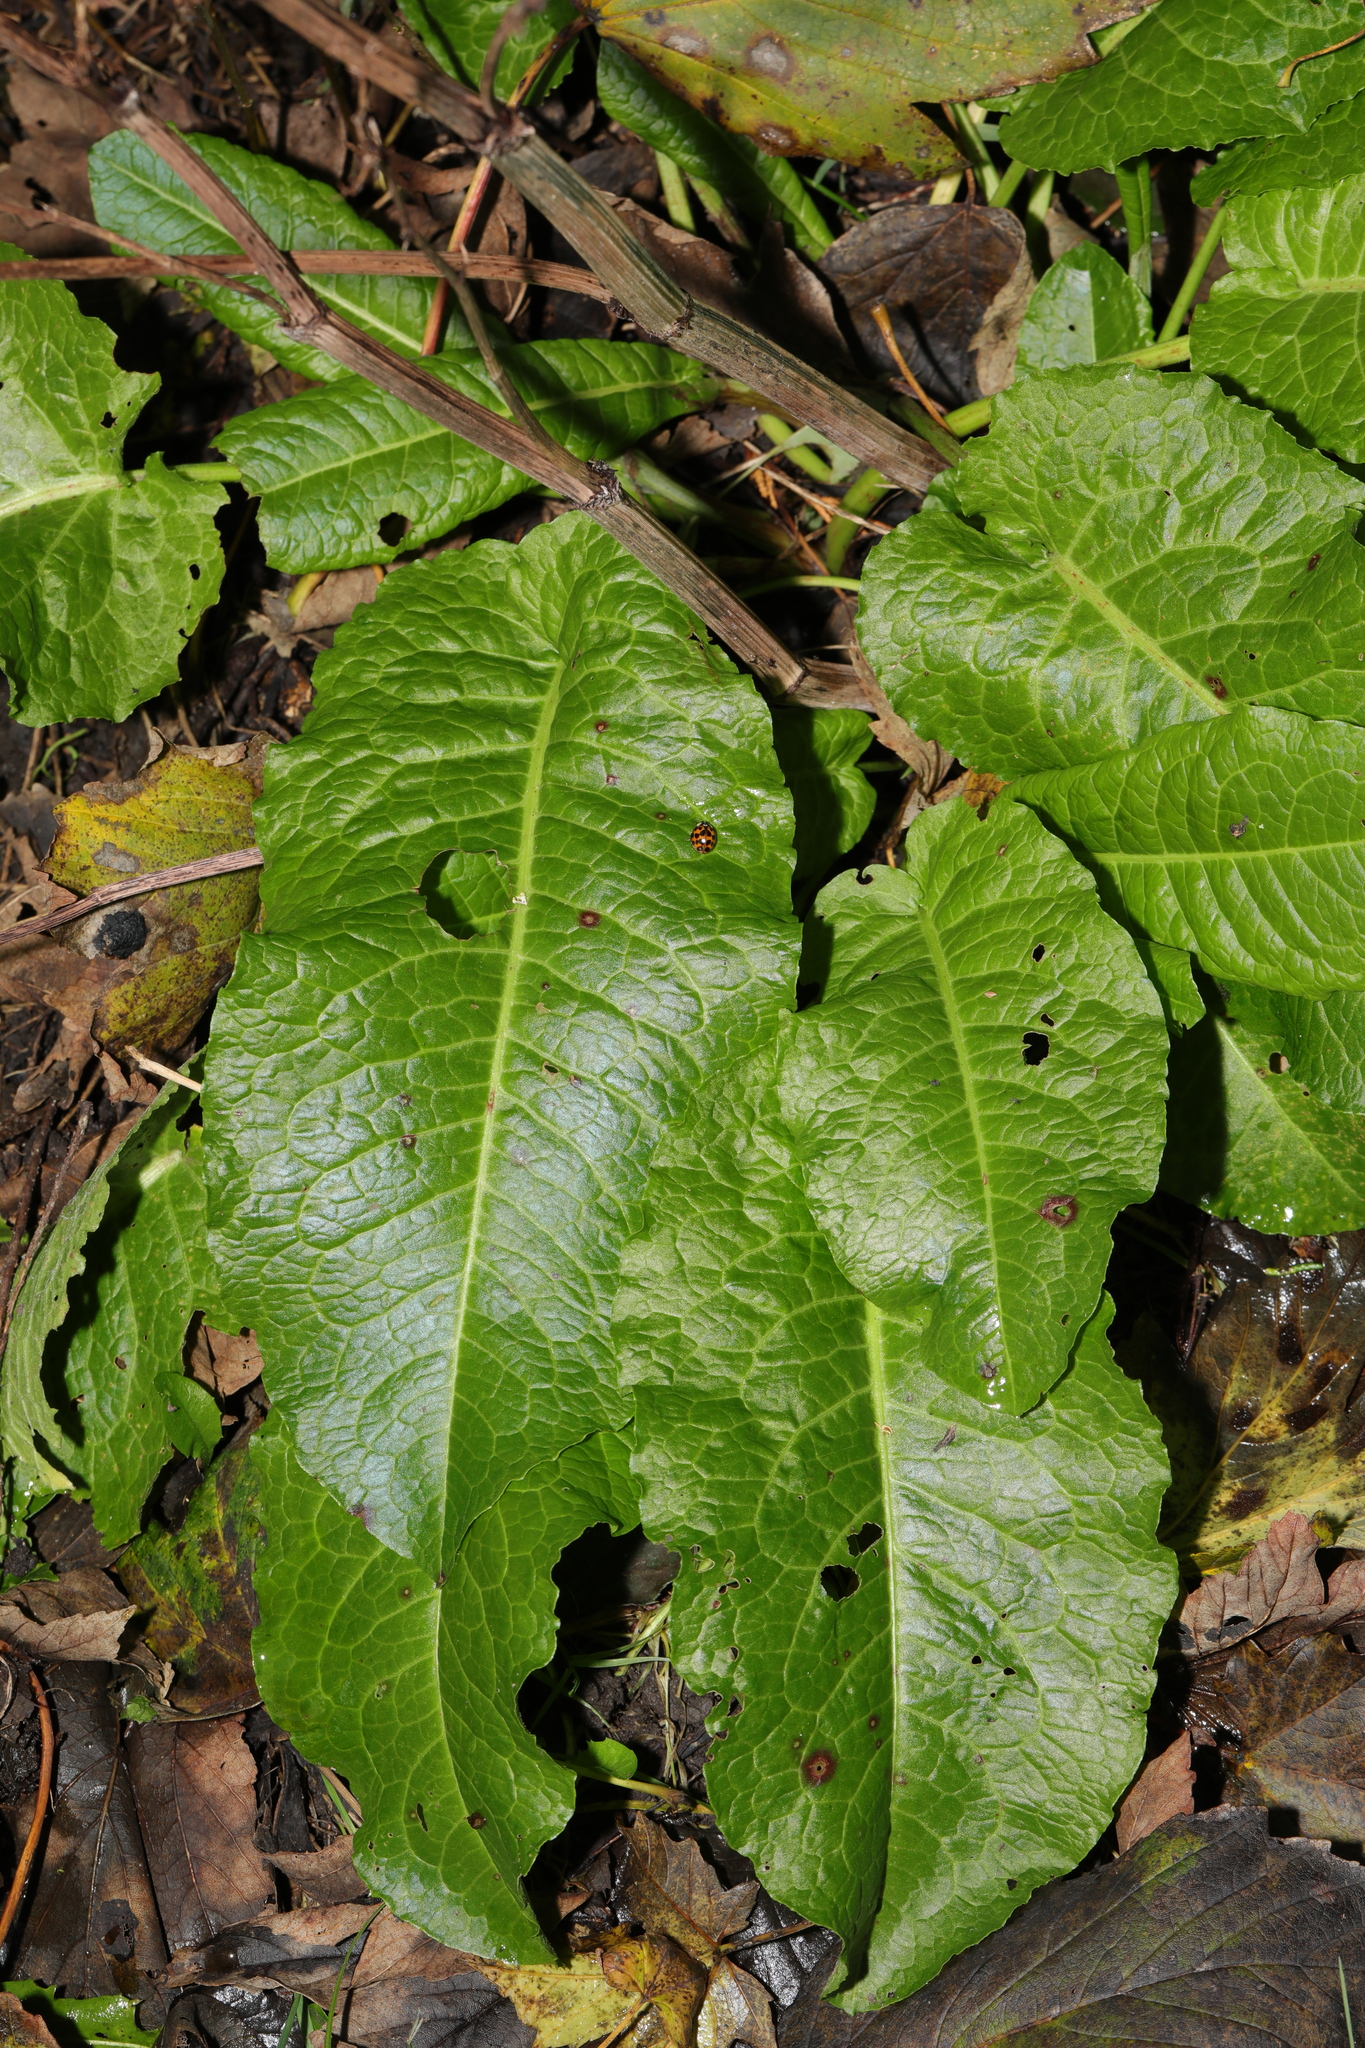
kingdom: Plantae
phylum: Tracheophyta
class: Magnoliopsida
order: Caryophyllales
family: Polygonaceae
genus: Rumex
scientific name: Rumex obtusifolius
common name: Bitter dock
